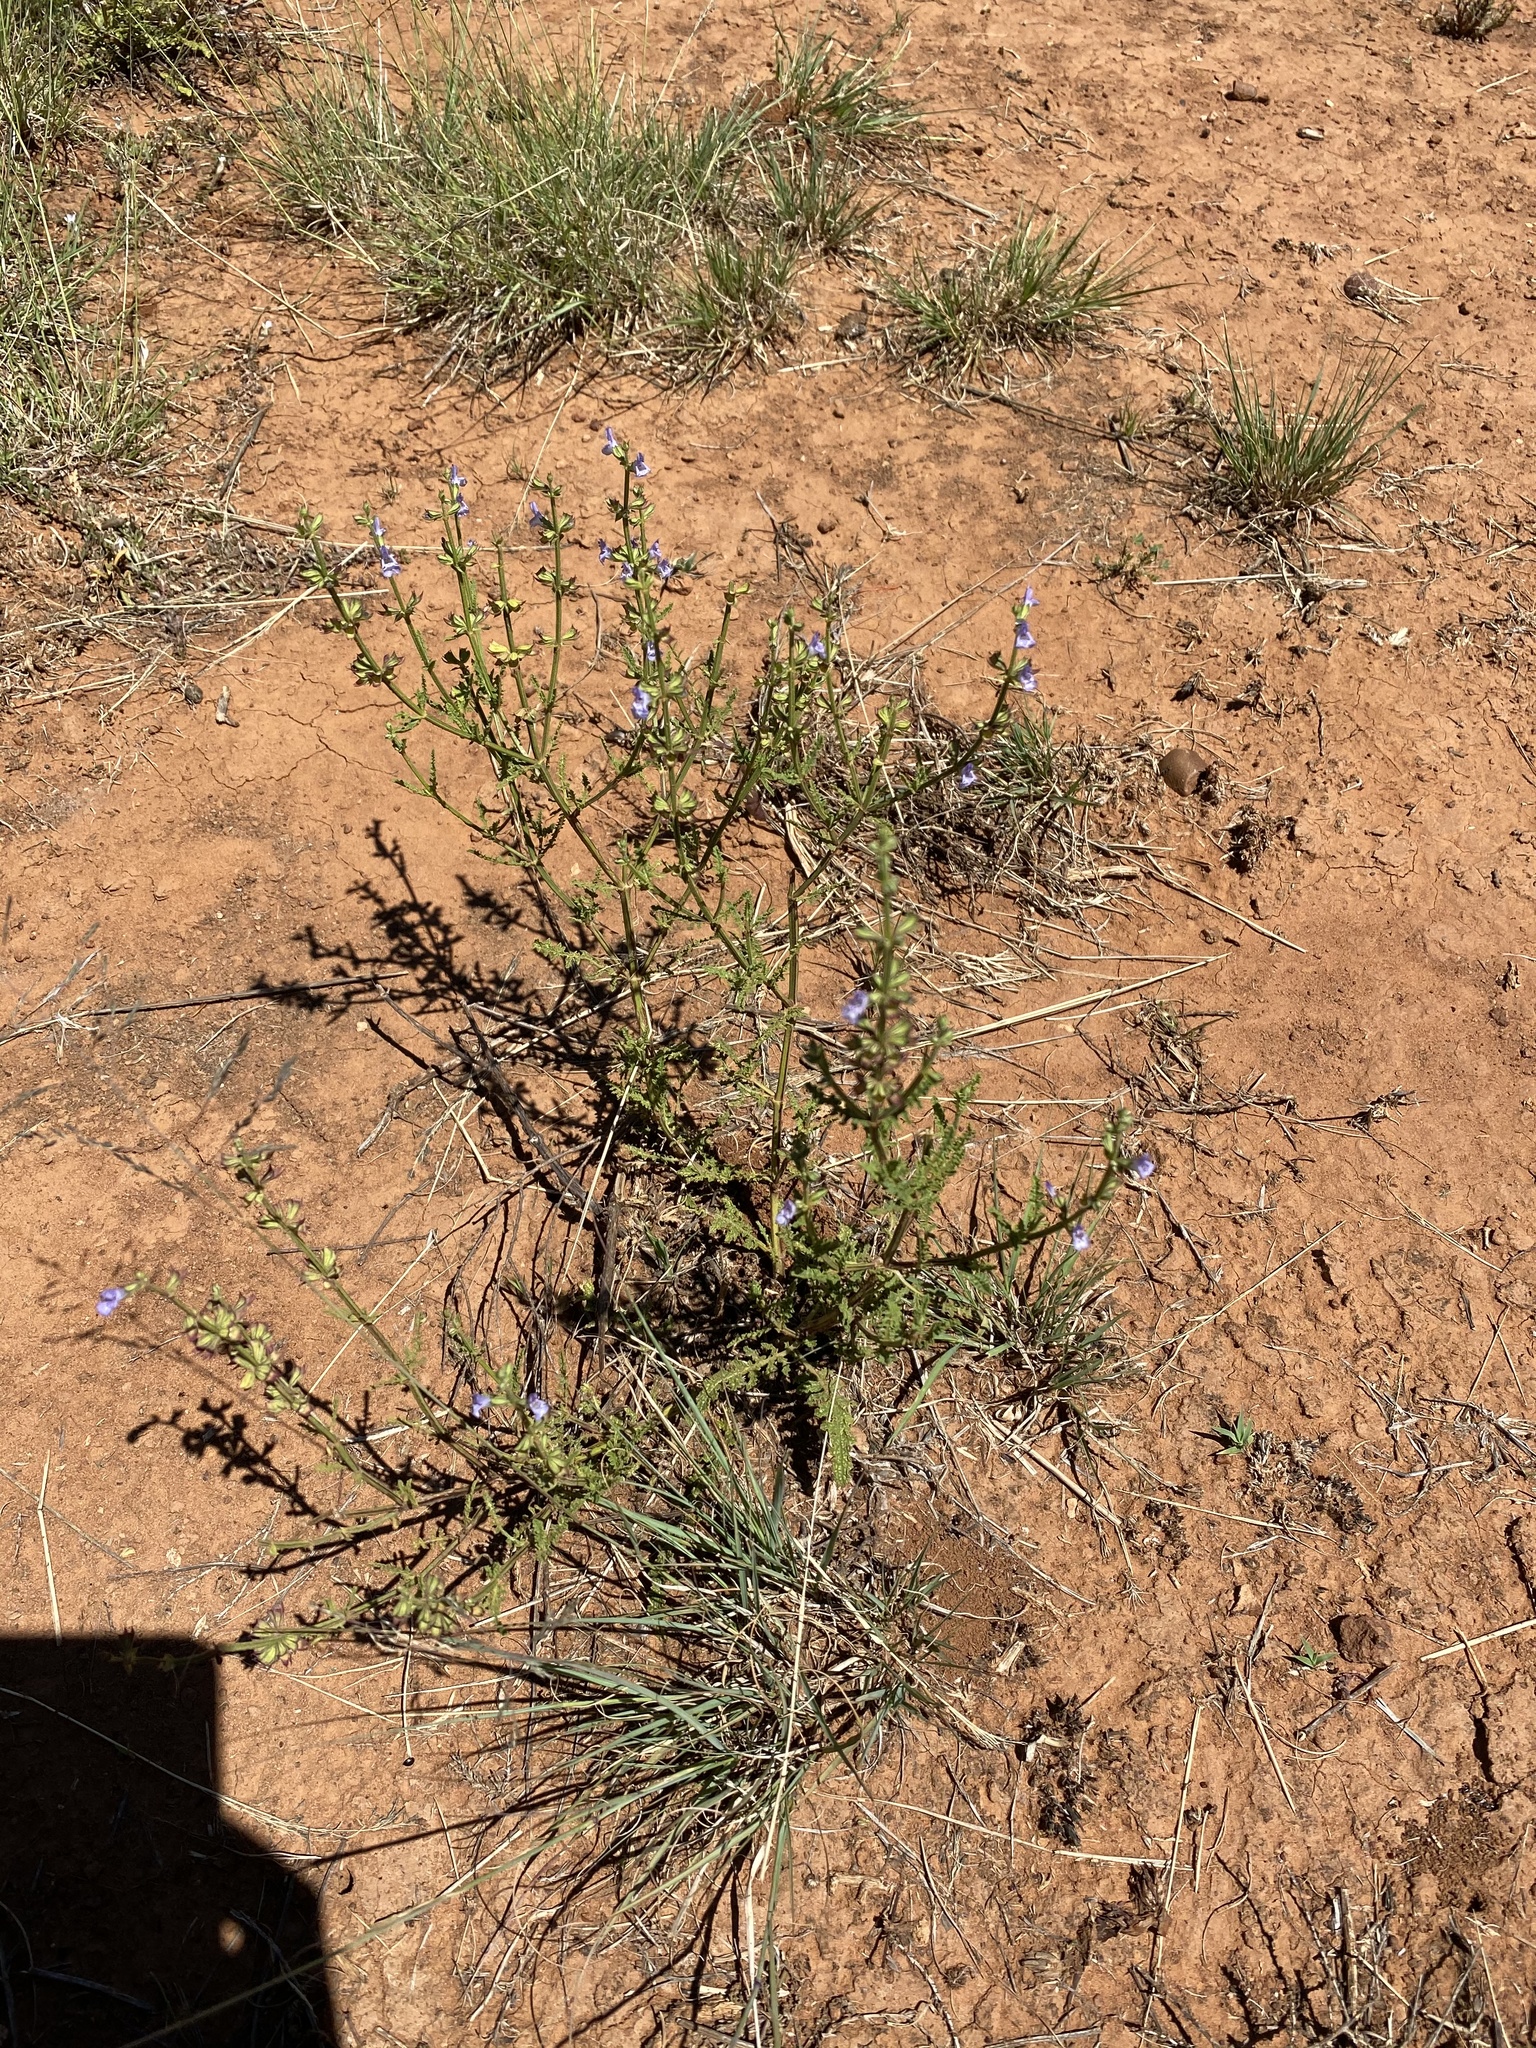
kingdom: Plantae
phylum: Tracheophyta
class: Magnoliopsida
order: Lamiales
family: Lamiaceae
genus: Salvia
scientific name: Salvia stenophylla
